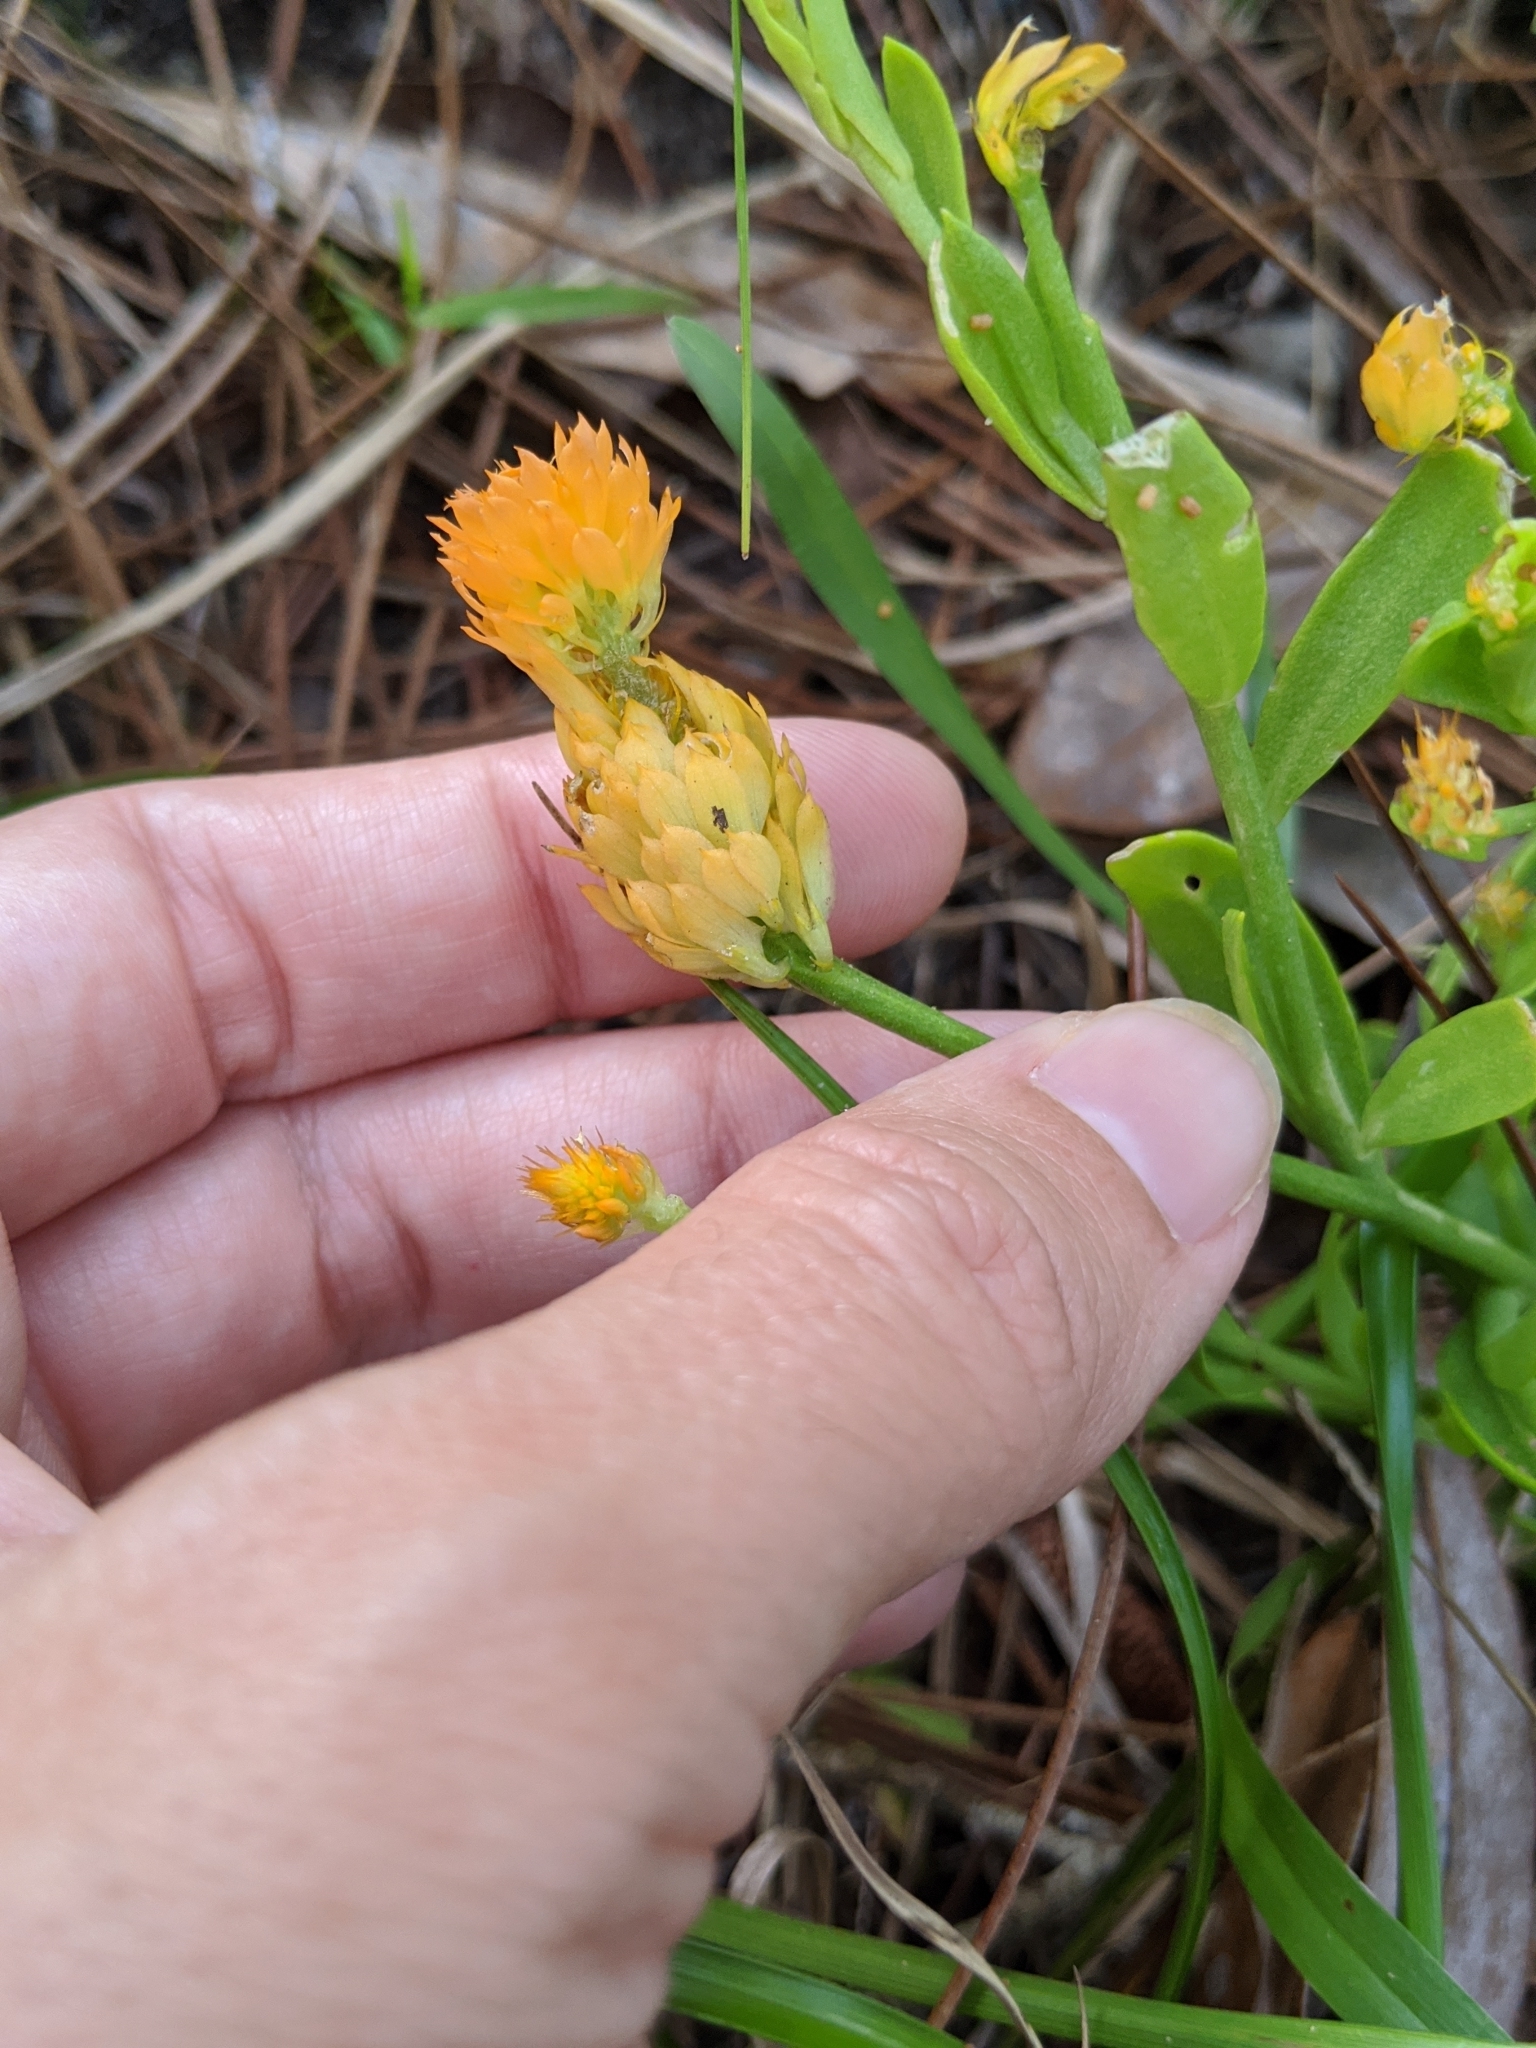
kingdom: Plantae
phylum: Tracheophyta
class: Magnoliopsida
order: Fabales
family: Polygalaceae
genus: Polygala
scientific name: Polygala lutea
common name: Orange milkwort
